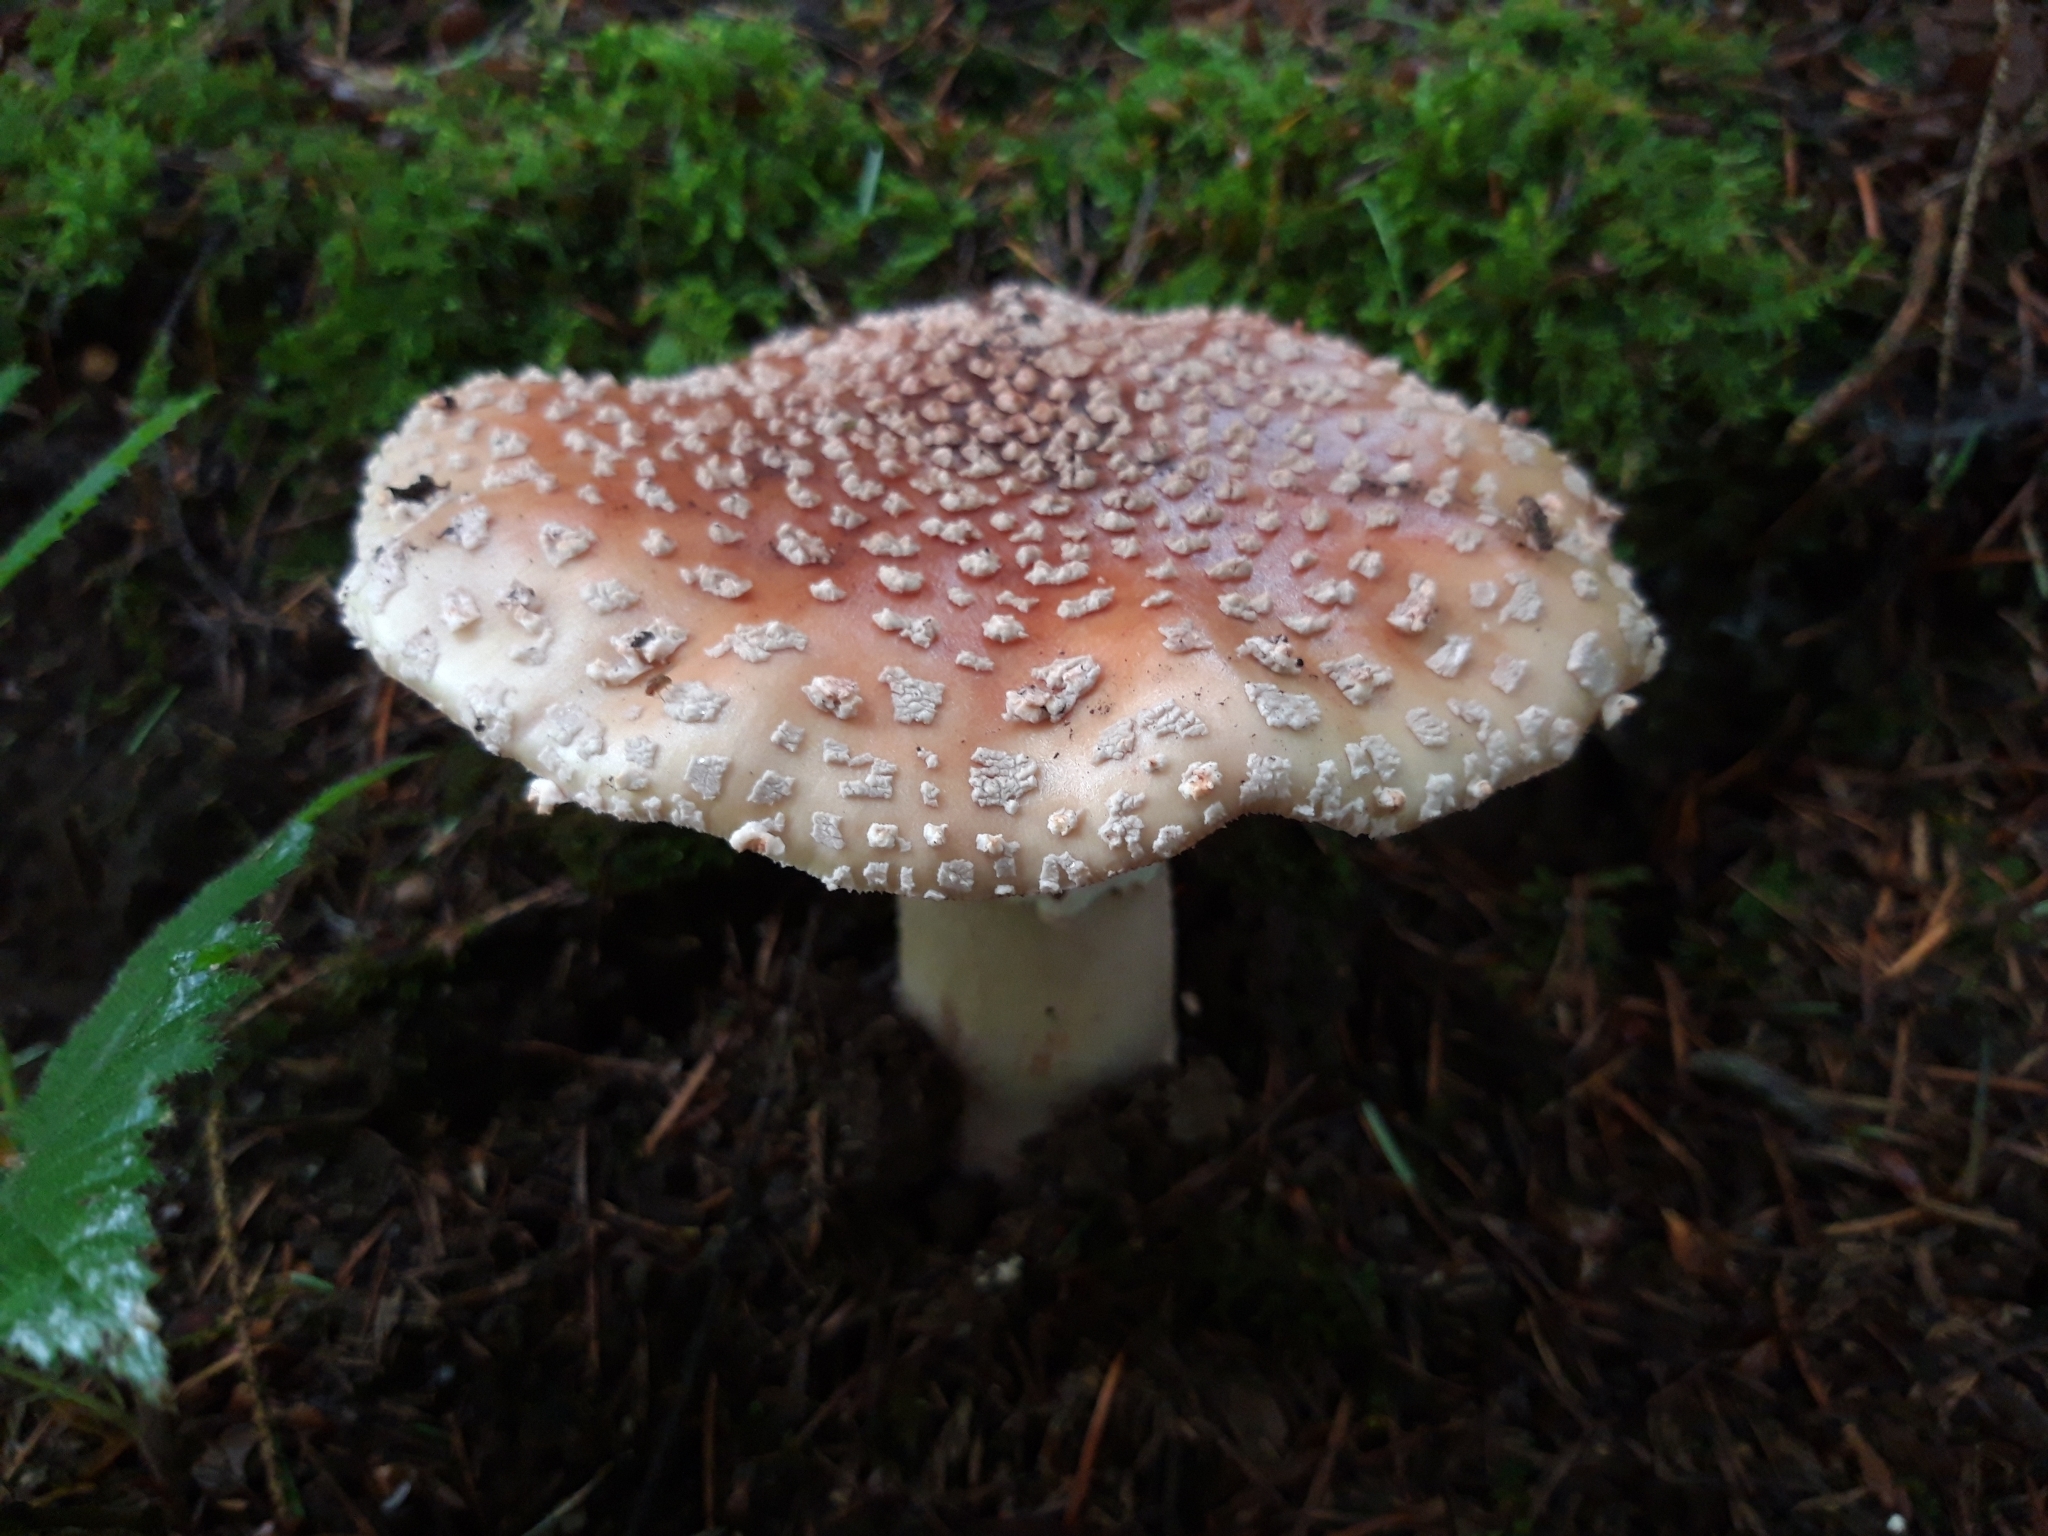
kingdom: Fungi
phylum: Basidiomycota
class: Agaricomycetes
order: Agaricales
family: Amanitaceae
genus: Amanita
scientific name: Amanita rubescens
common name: Blusher
